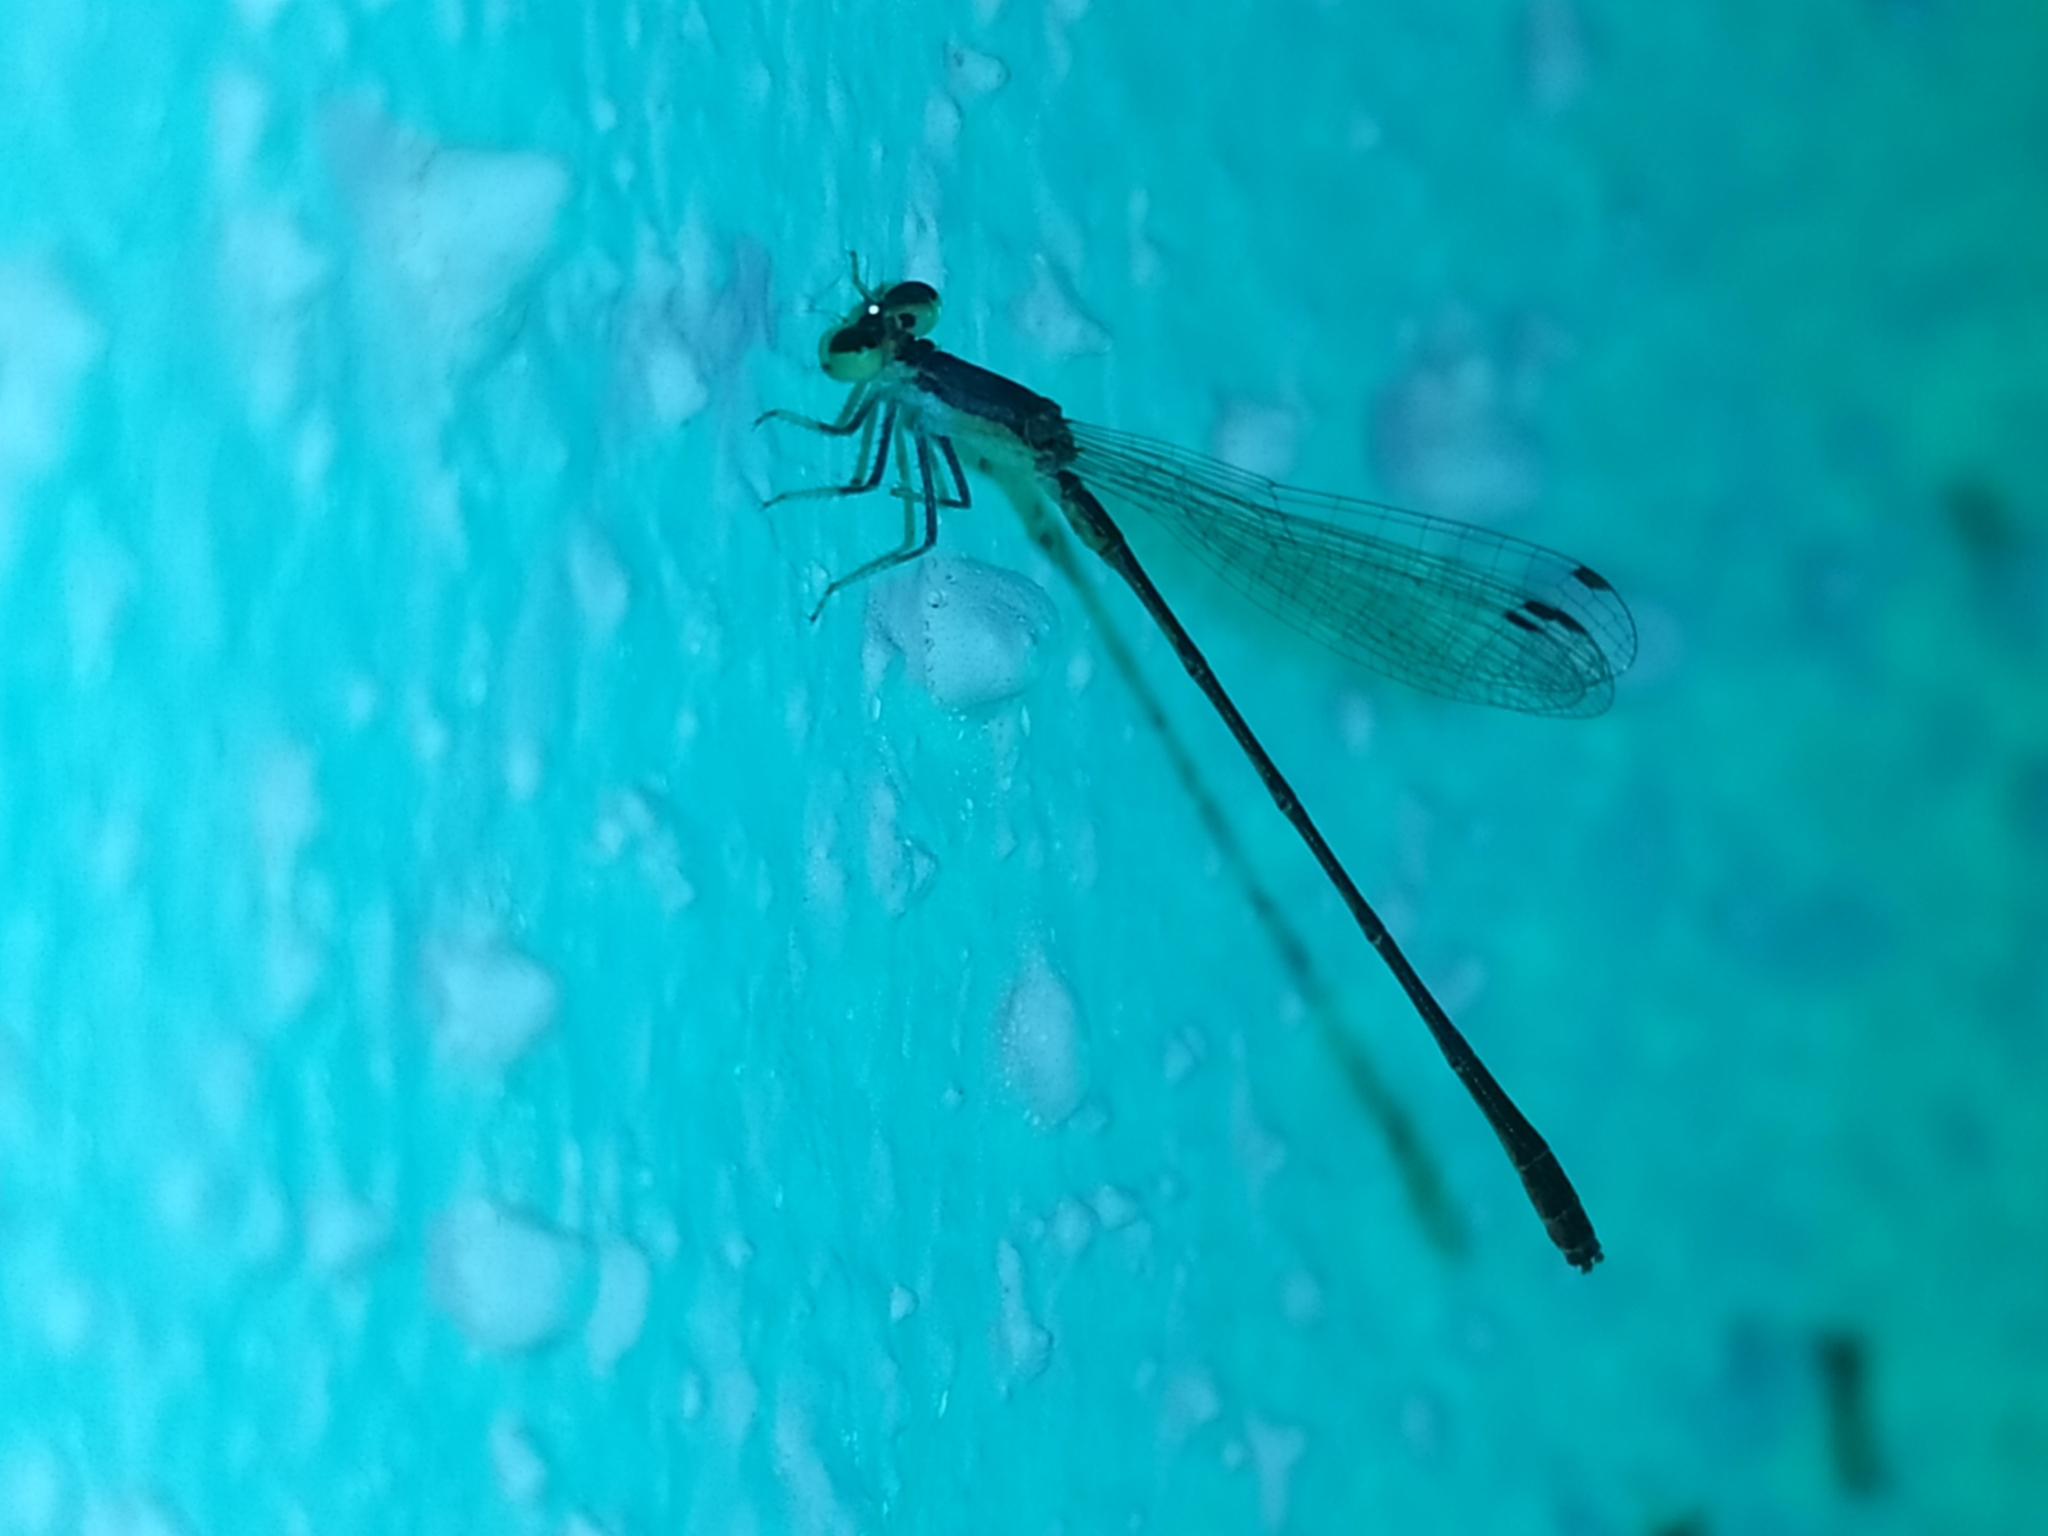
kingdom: Animalia
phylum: Arthropoda
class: Insecta
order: Odonata
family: Coenagrionidae
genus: Agriocnemis
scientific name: Agriocnemis pygmaea
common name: Pygmy wisp
